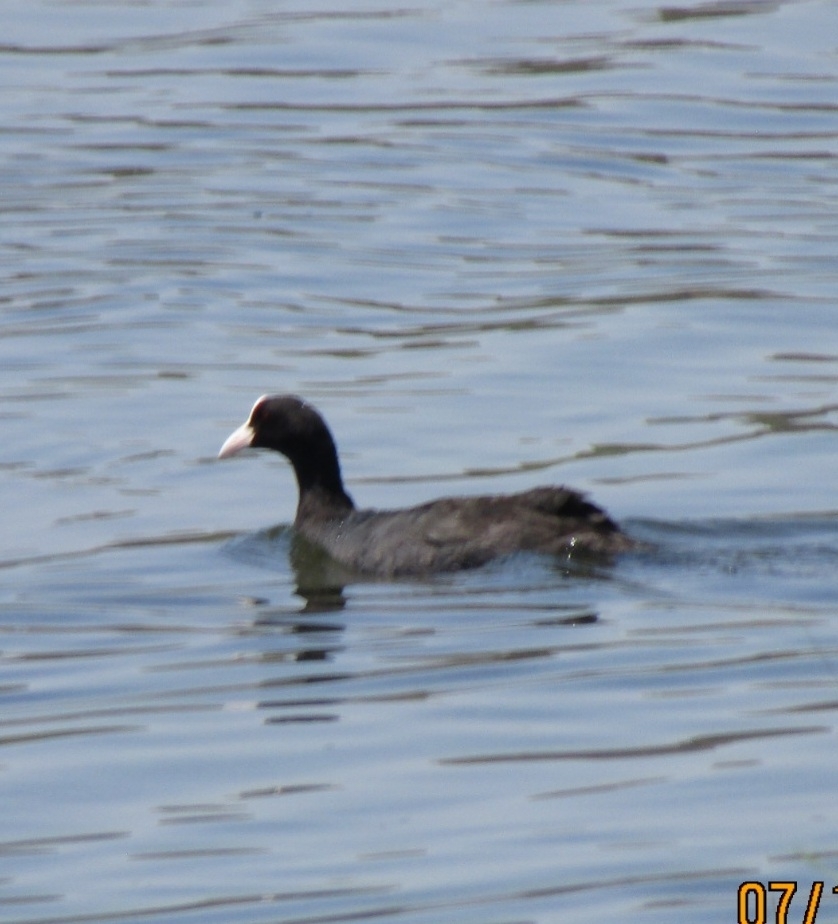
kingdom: Animalia
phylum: Chordata
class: Aves
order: Gruiformes
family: Rallidae
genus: Fulica
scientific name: Fulica atra
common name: Eurasian coot
